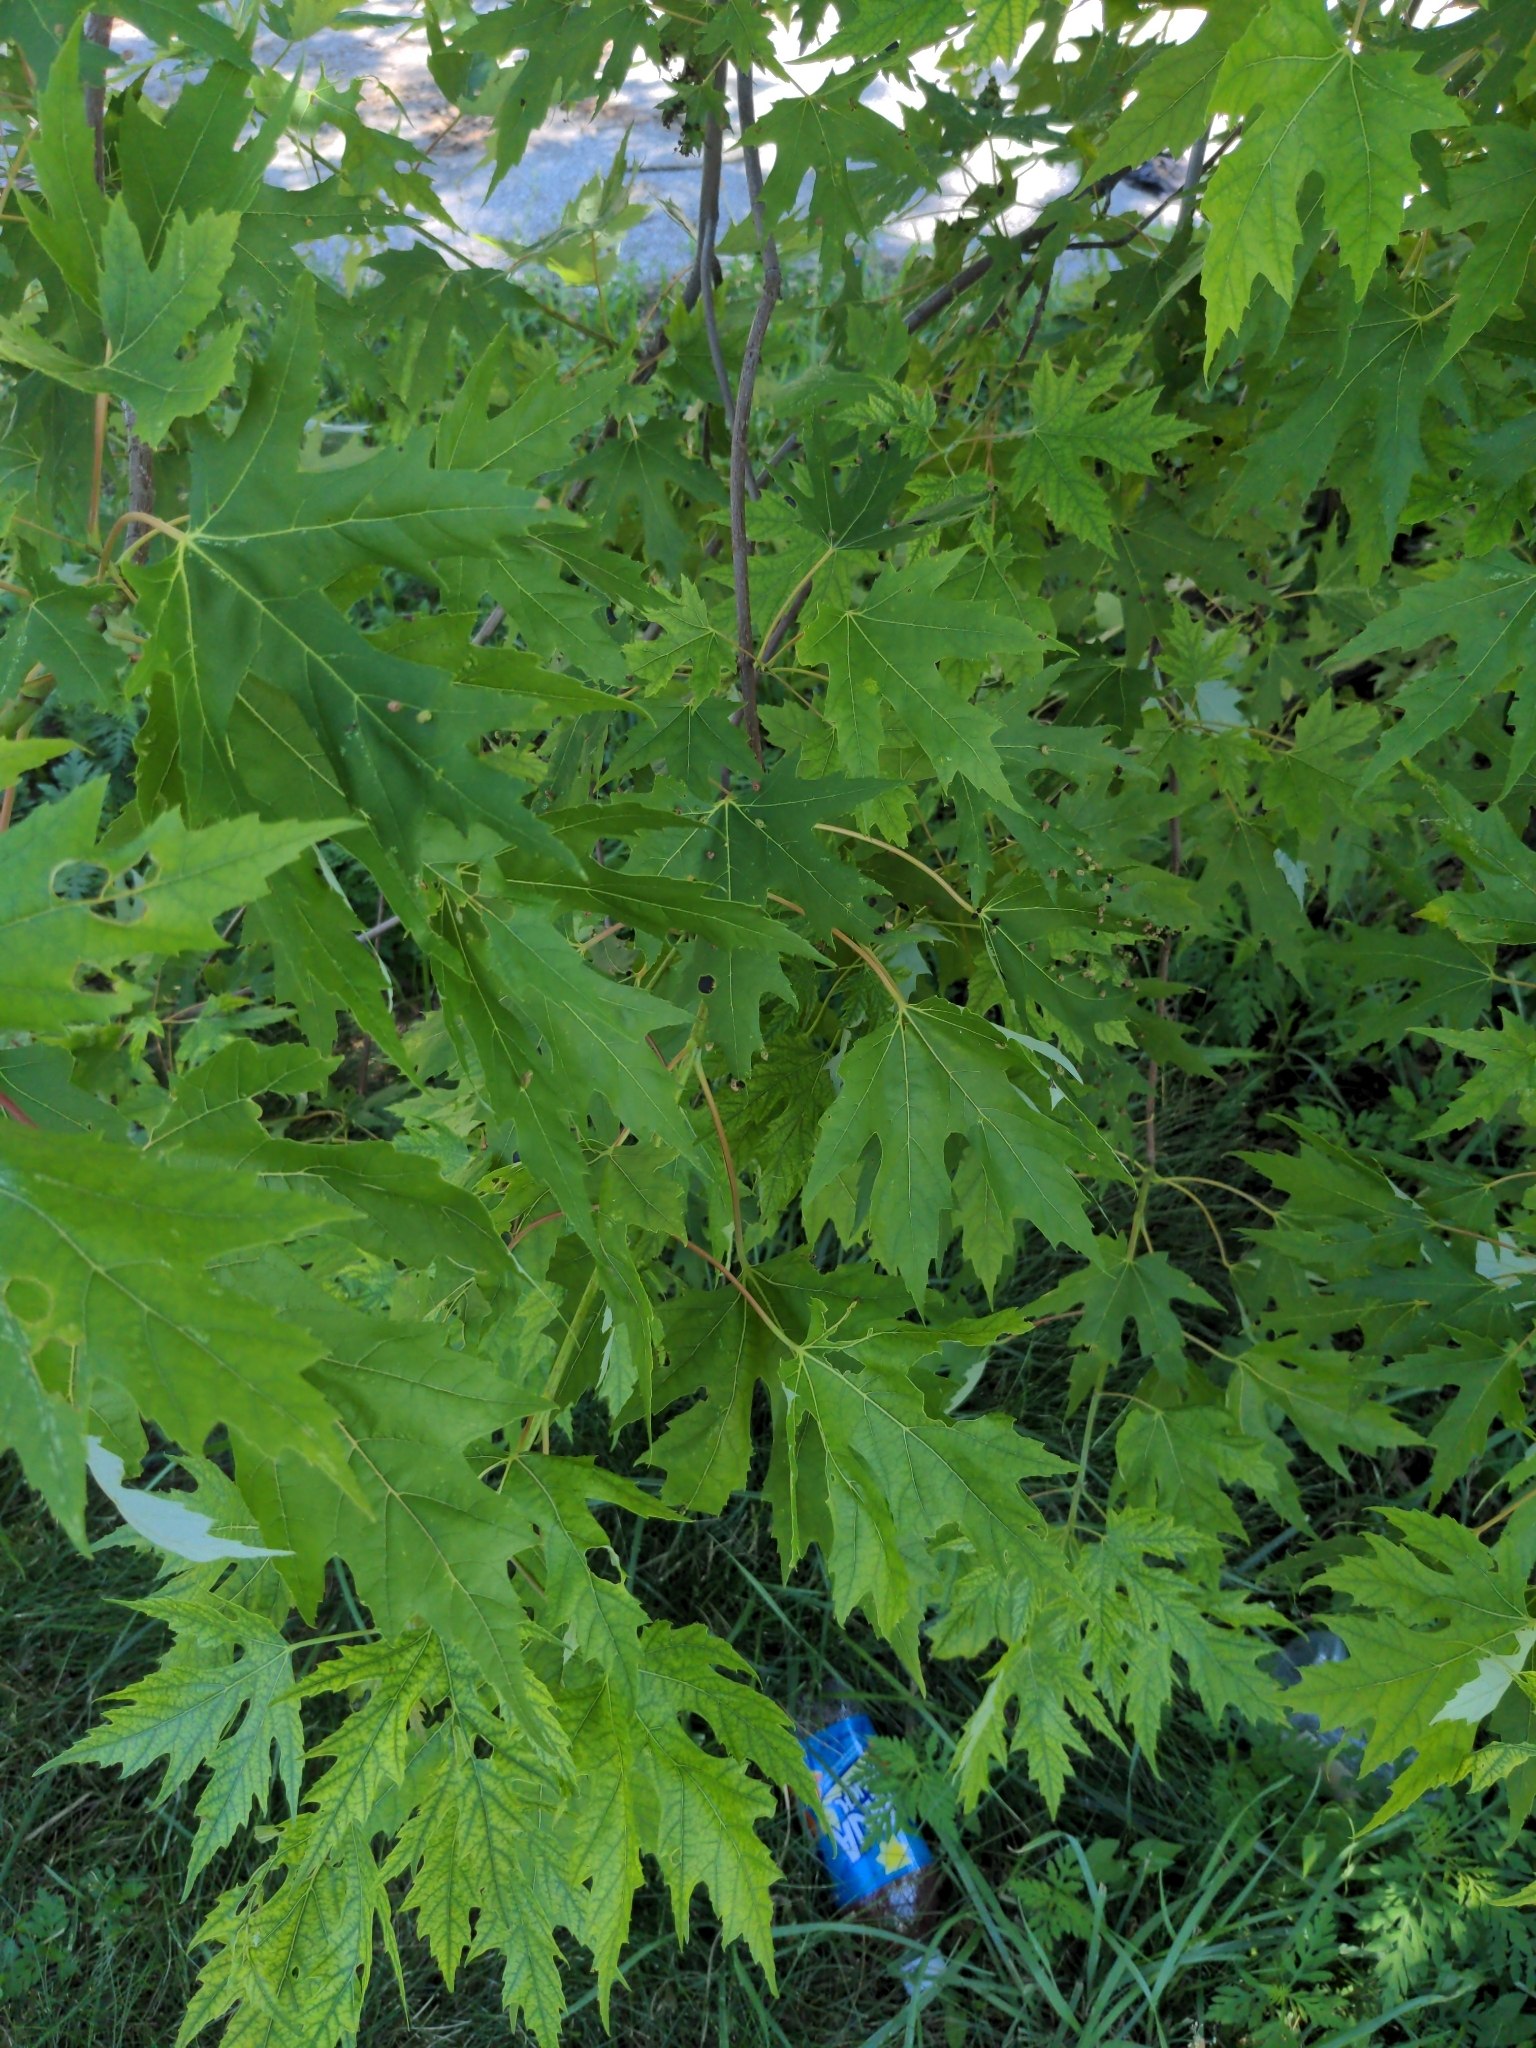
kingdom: Plantae
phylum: Tracheophyta
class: Magnoliopsida
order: Sapindales
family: Sapindaceae
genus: Acer
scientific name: Acer saccharinum
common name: Silver maple
